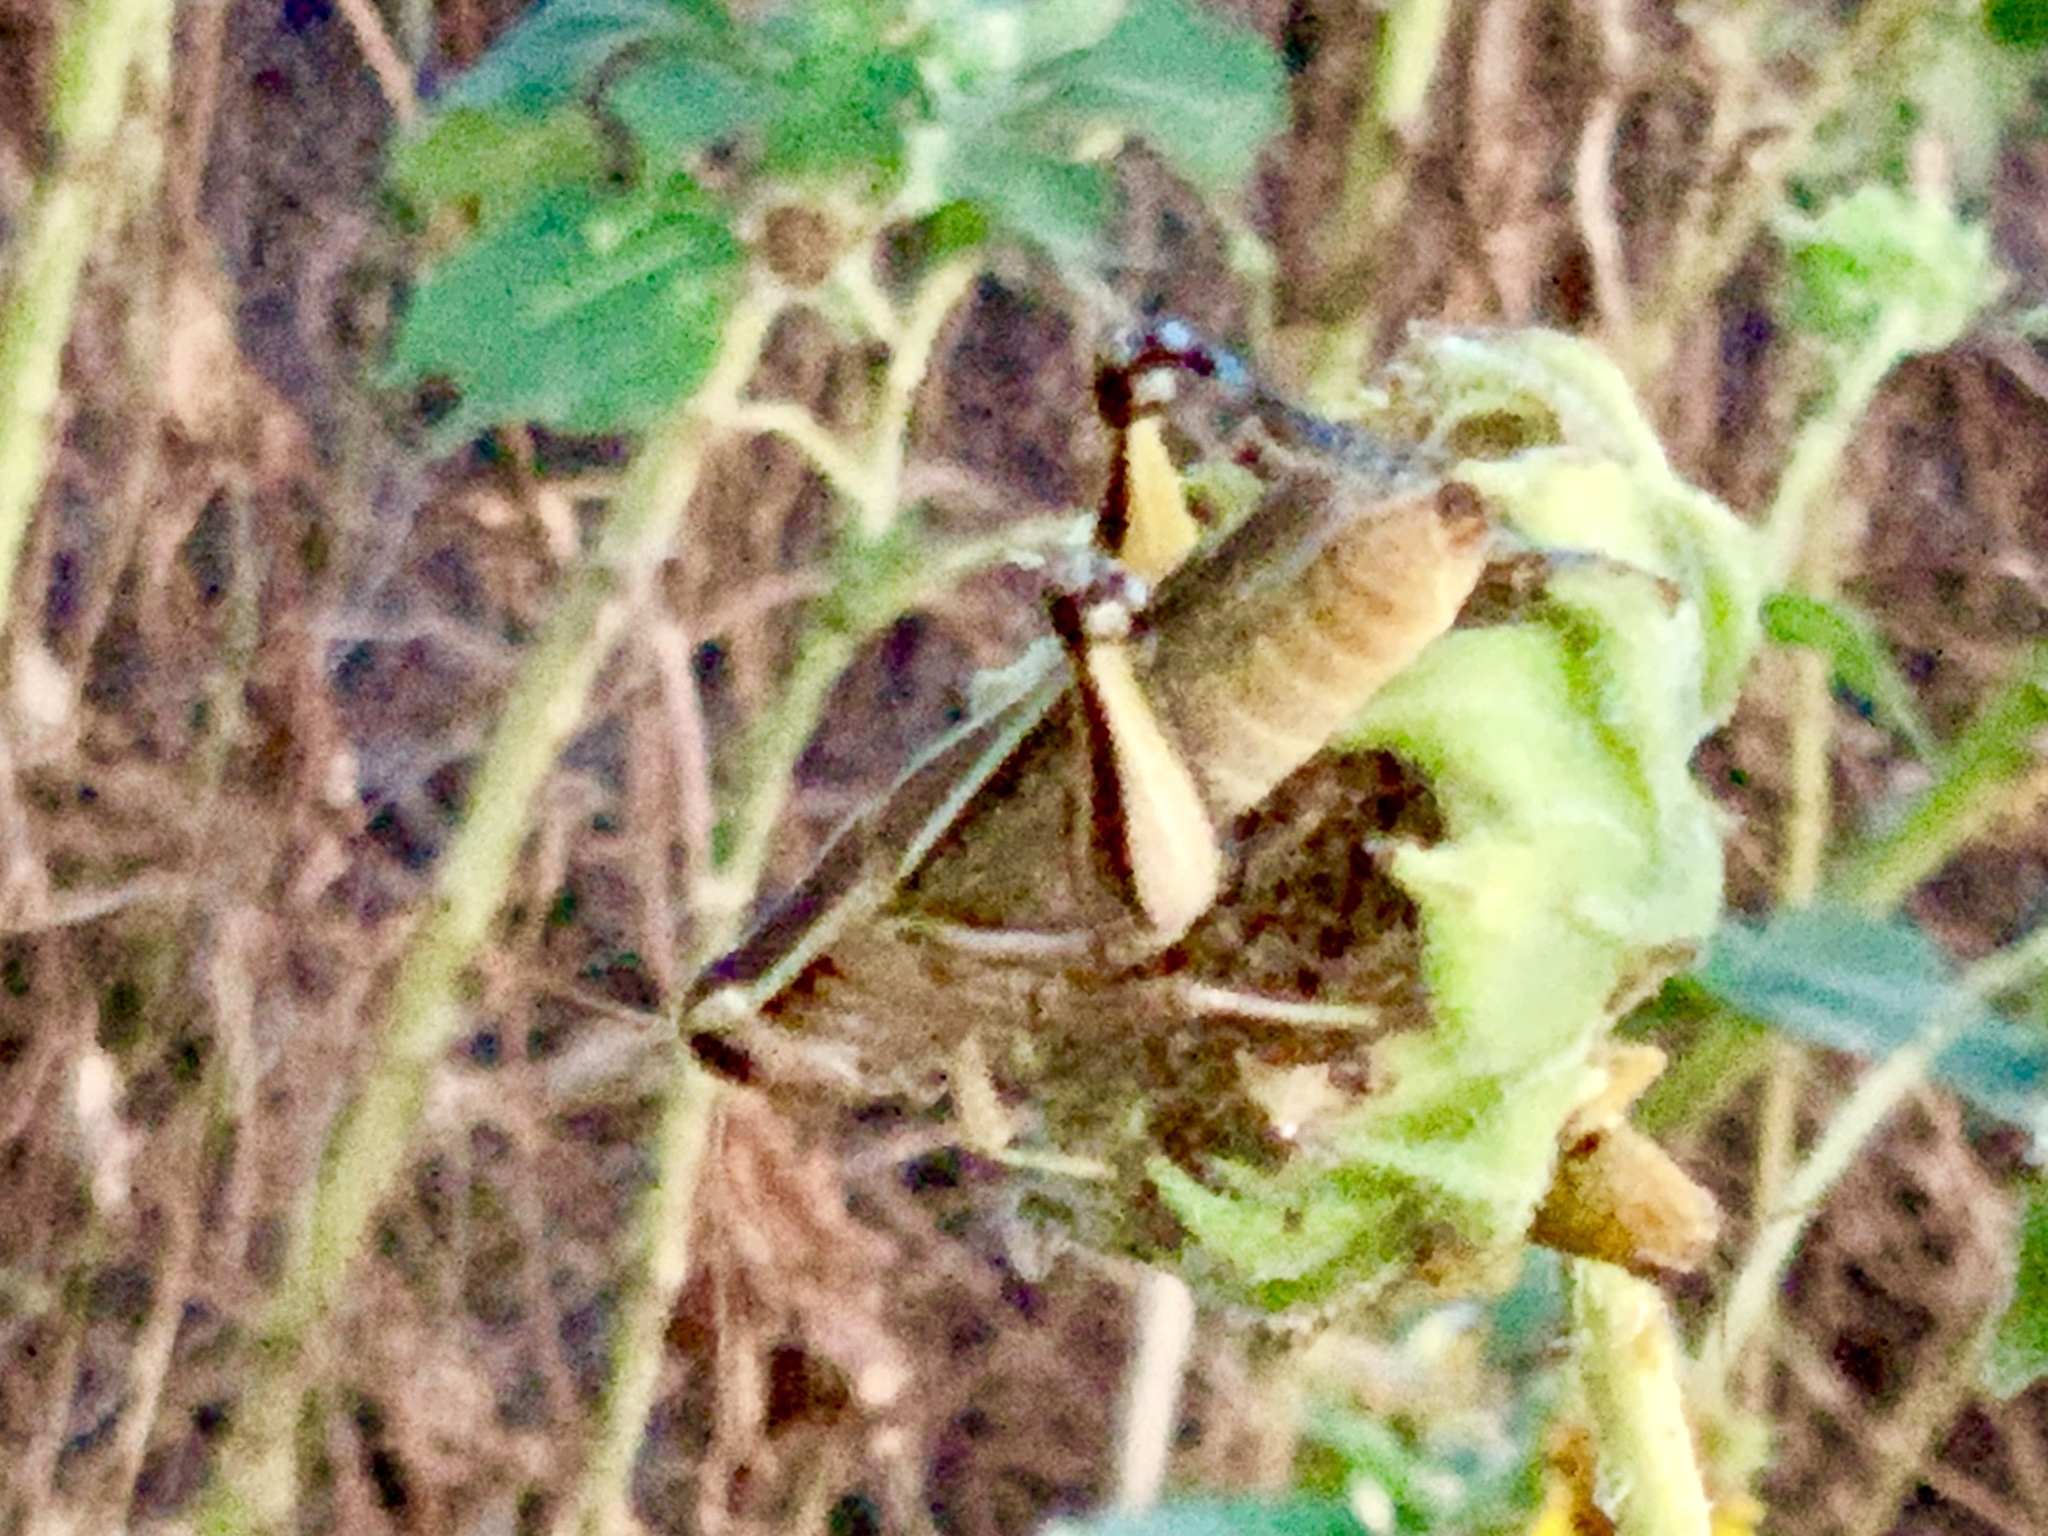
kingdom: Animalia
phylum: Arthropoda
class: Insecta
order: Orthoptera
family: Acrididae
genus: Melanoplus
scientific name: Melanoplus bivittatus
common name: Two-striped grasshopper
